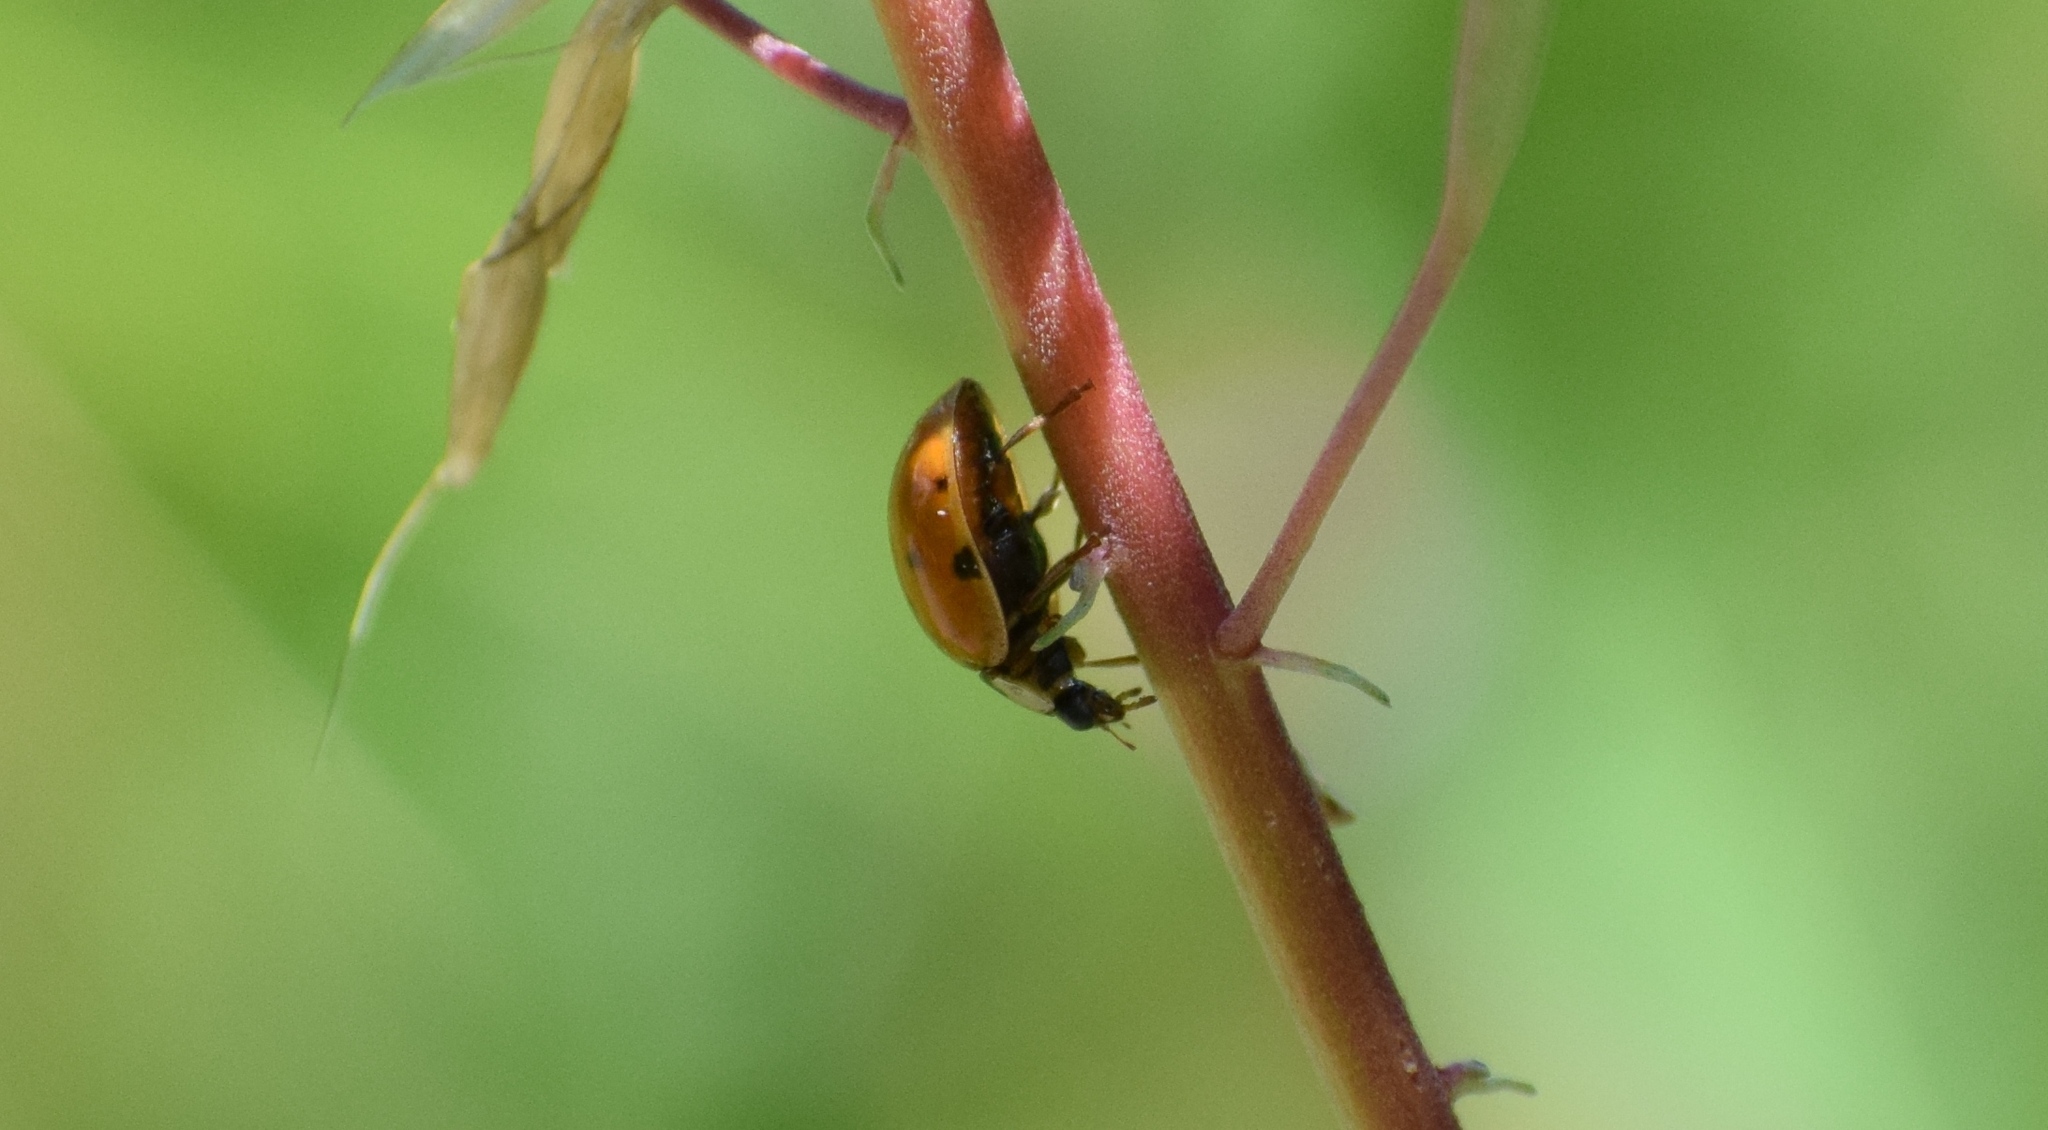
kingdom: Animalia
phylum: Arthropoda
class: Insecta
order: Coleoptera
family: Coccinellidae
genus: Harmonia
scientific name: Harmonia axyridis
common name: Harlequin ladybird
